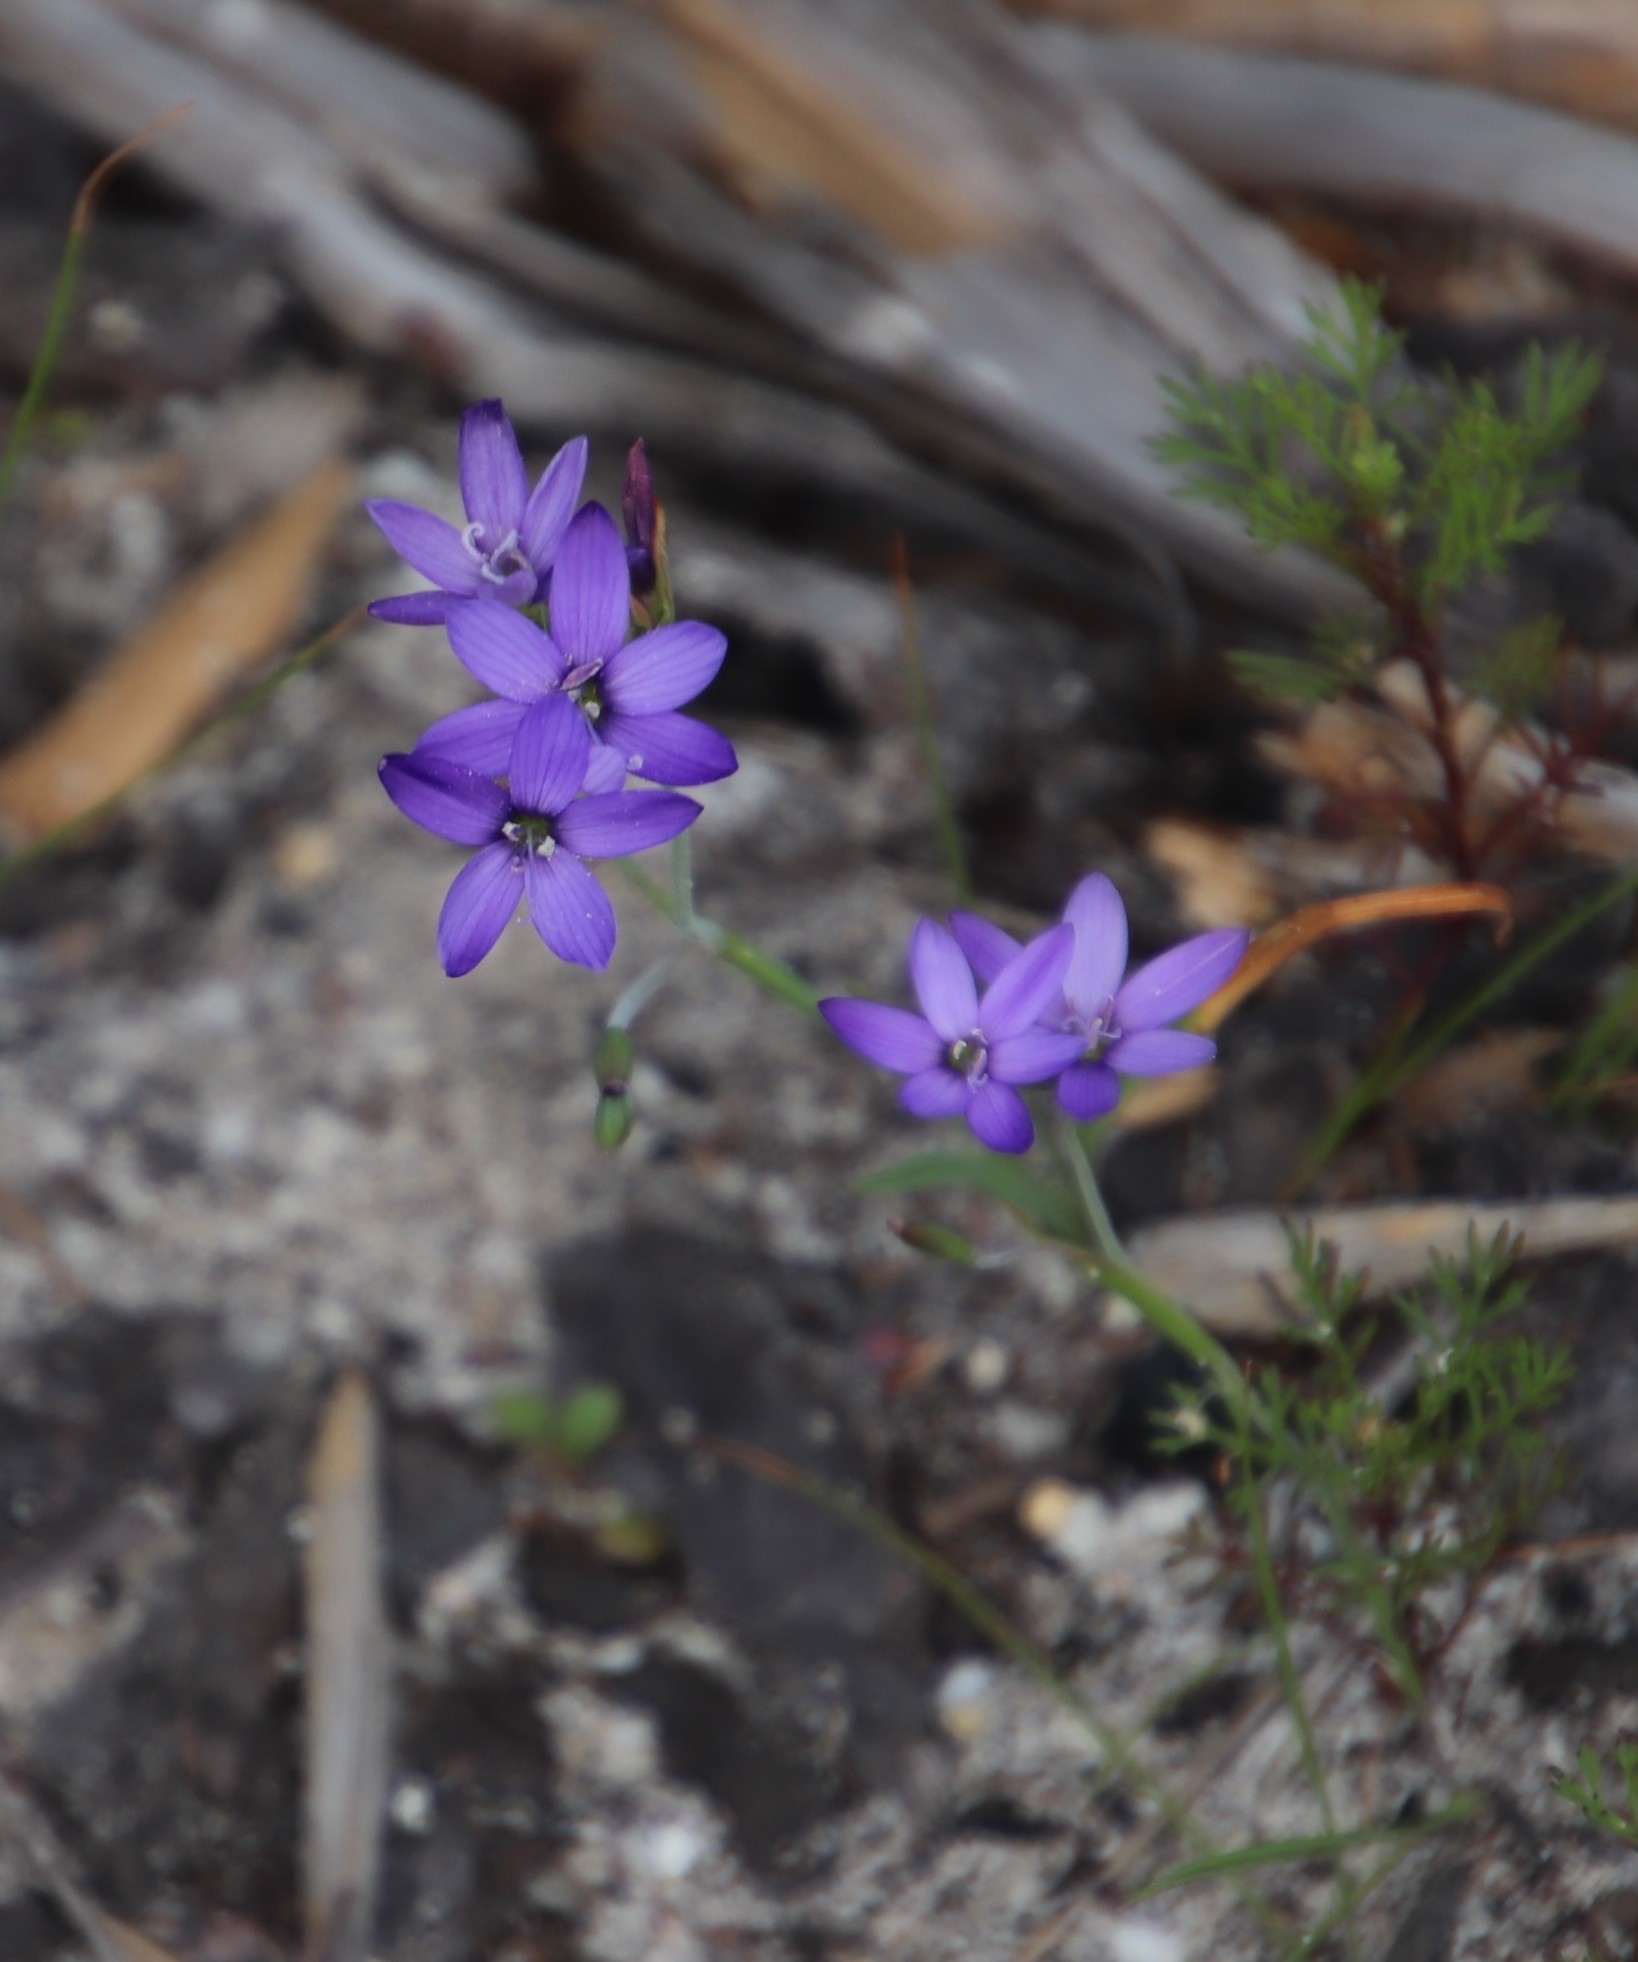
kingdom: Plantae
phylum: Tracheophyta
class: Liliopsida
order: Asparagales
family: Iridaceae
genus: Geissorhiza
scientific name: Geissorhiza aspera
